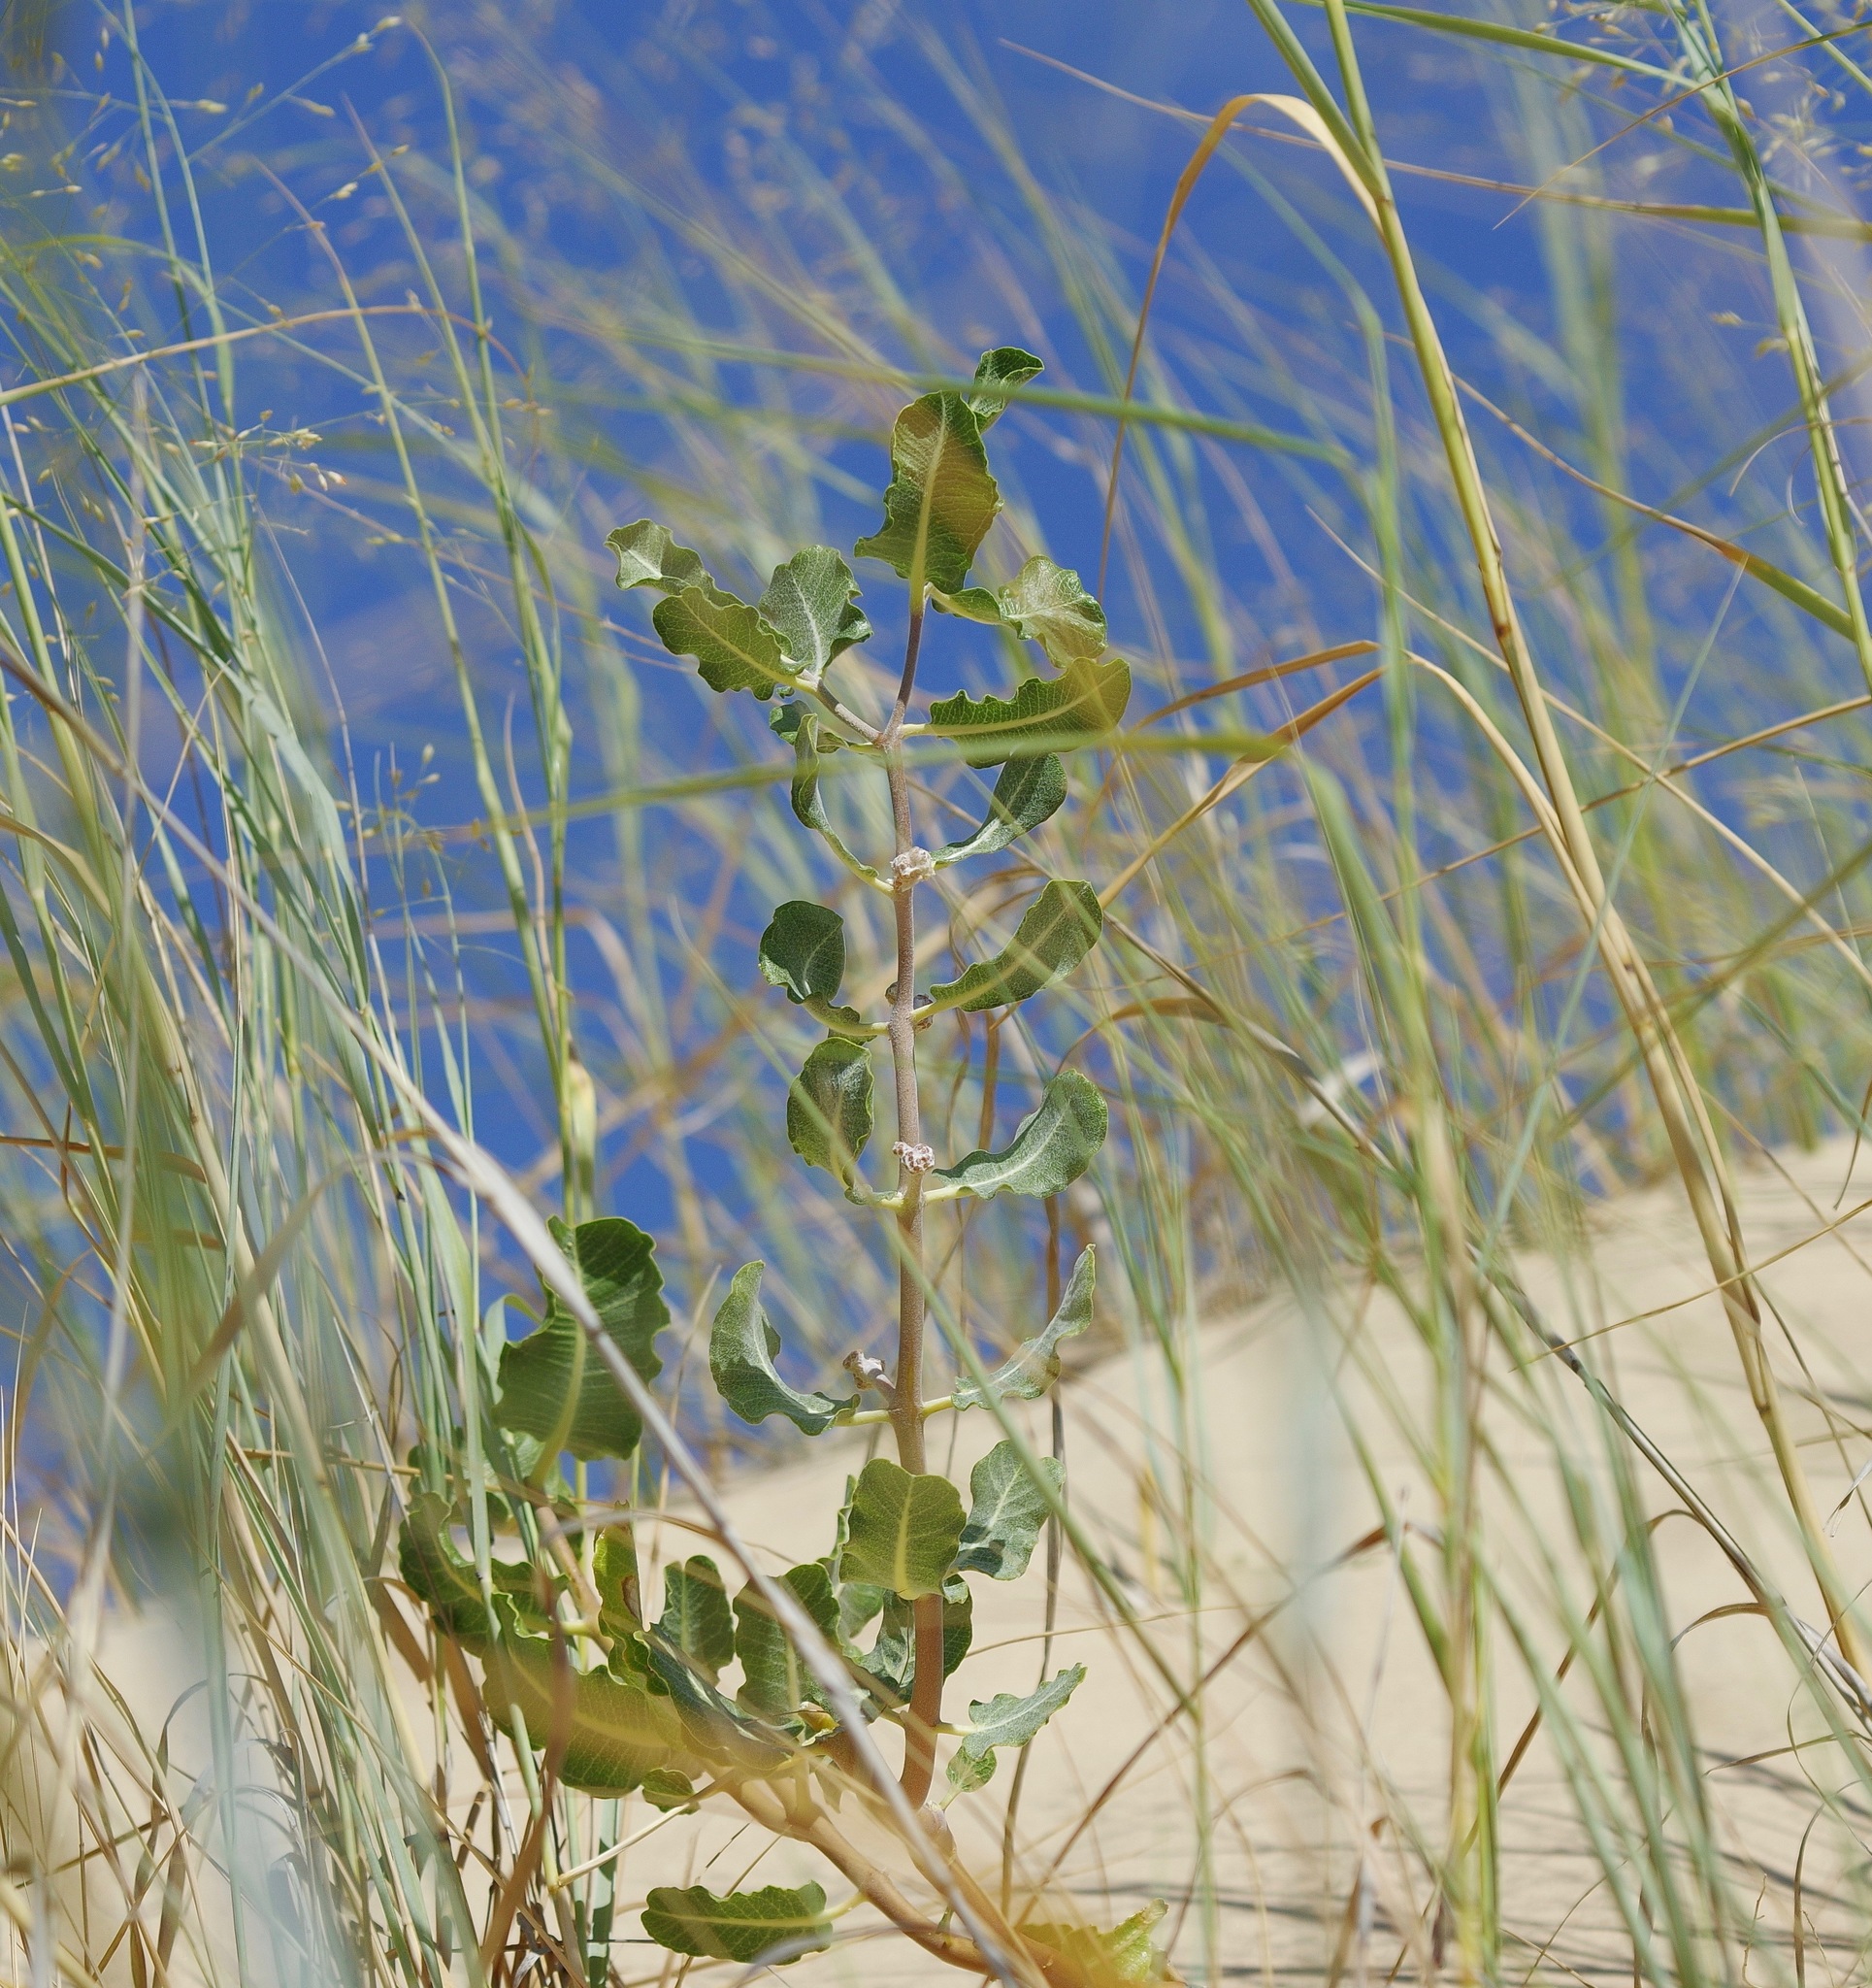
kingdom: Plantae
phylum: Tracheophyta
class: Magnoliopsida
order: Gentianales
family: Apocynaceae
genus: Asclepias
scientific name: Asclepias arenaria
